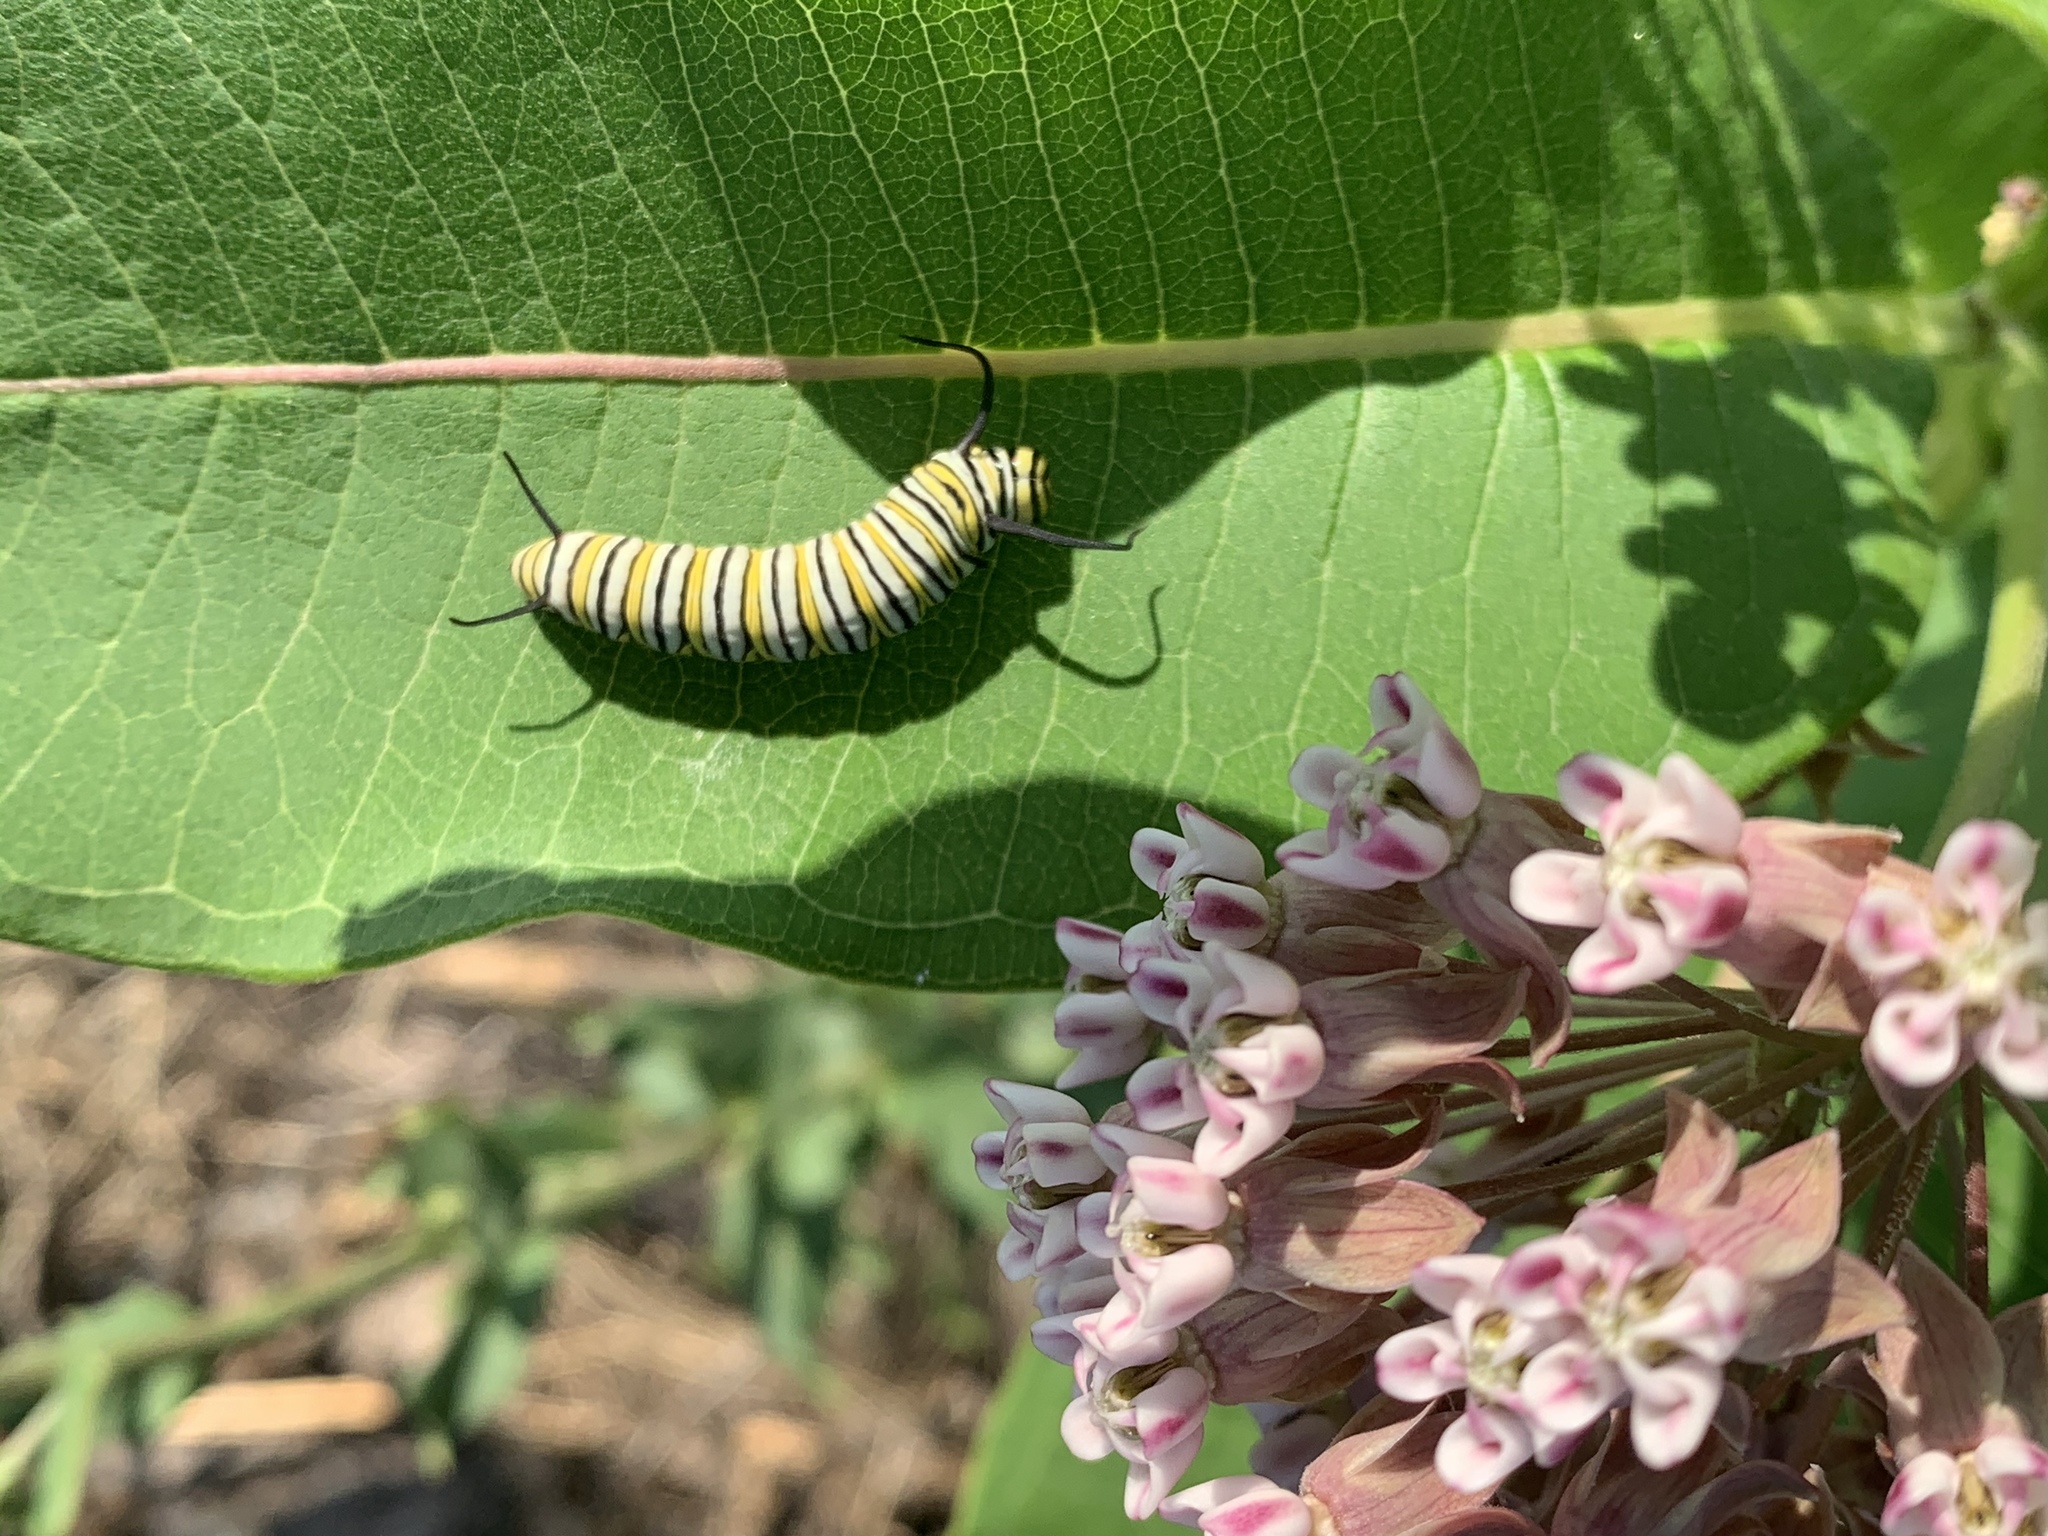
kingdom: Animalia
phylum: Arthropoda
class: Insecta
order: Lepidoptera
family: Nymphalidae
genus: Danaus
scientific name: Danaus plexippus
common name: Monarch
